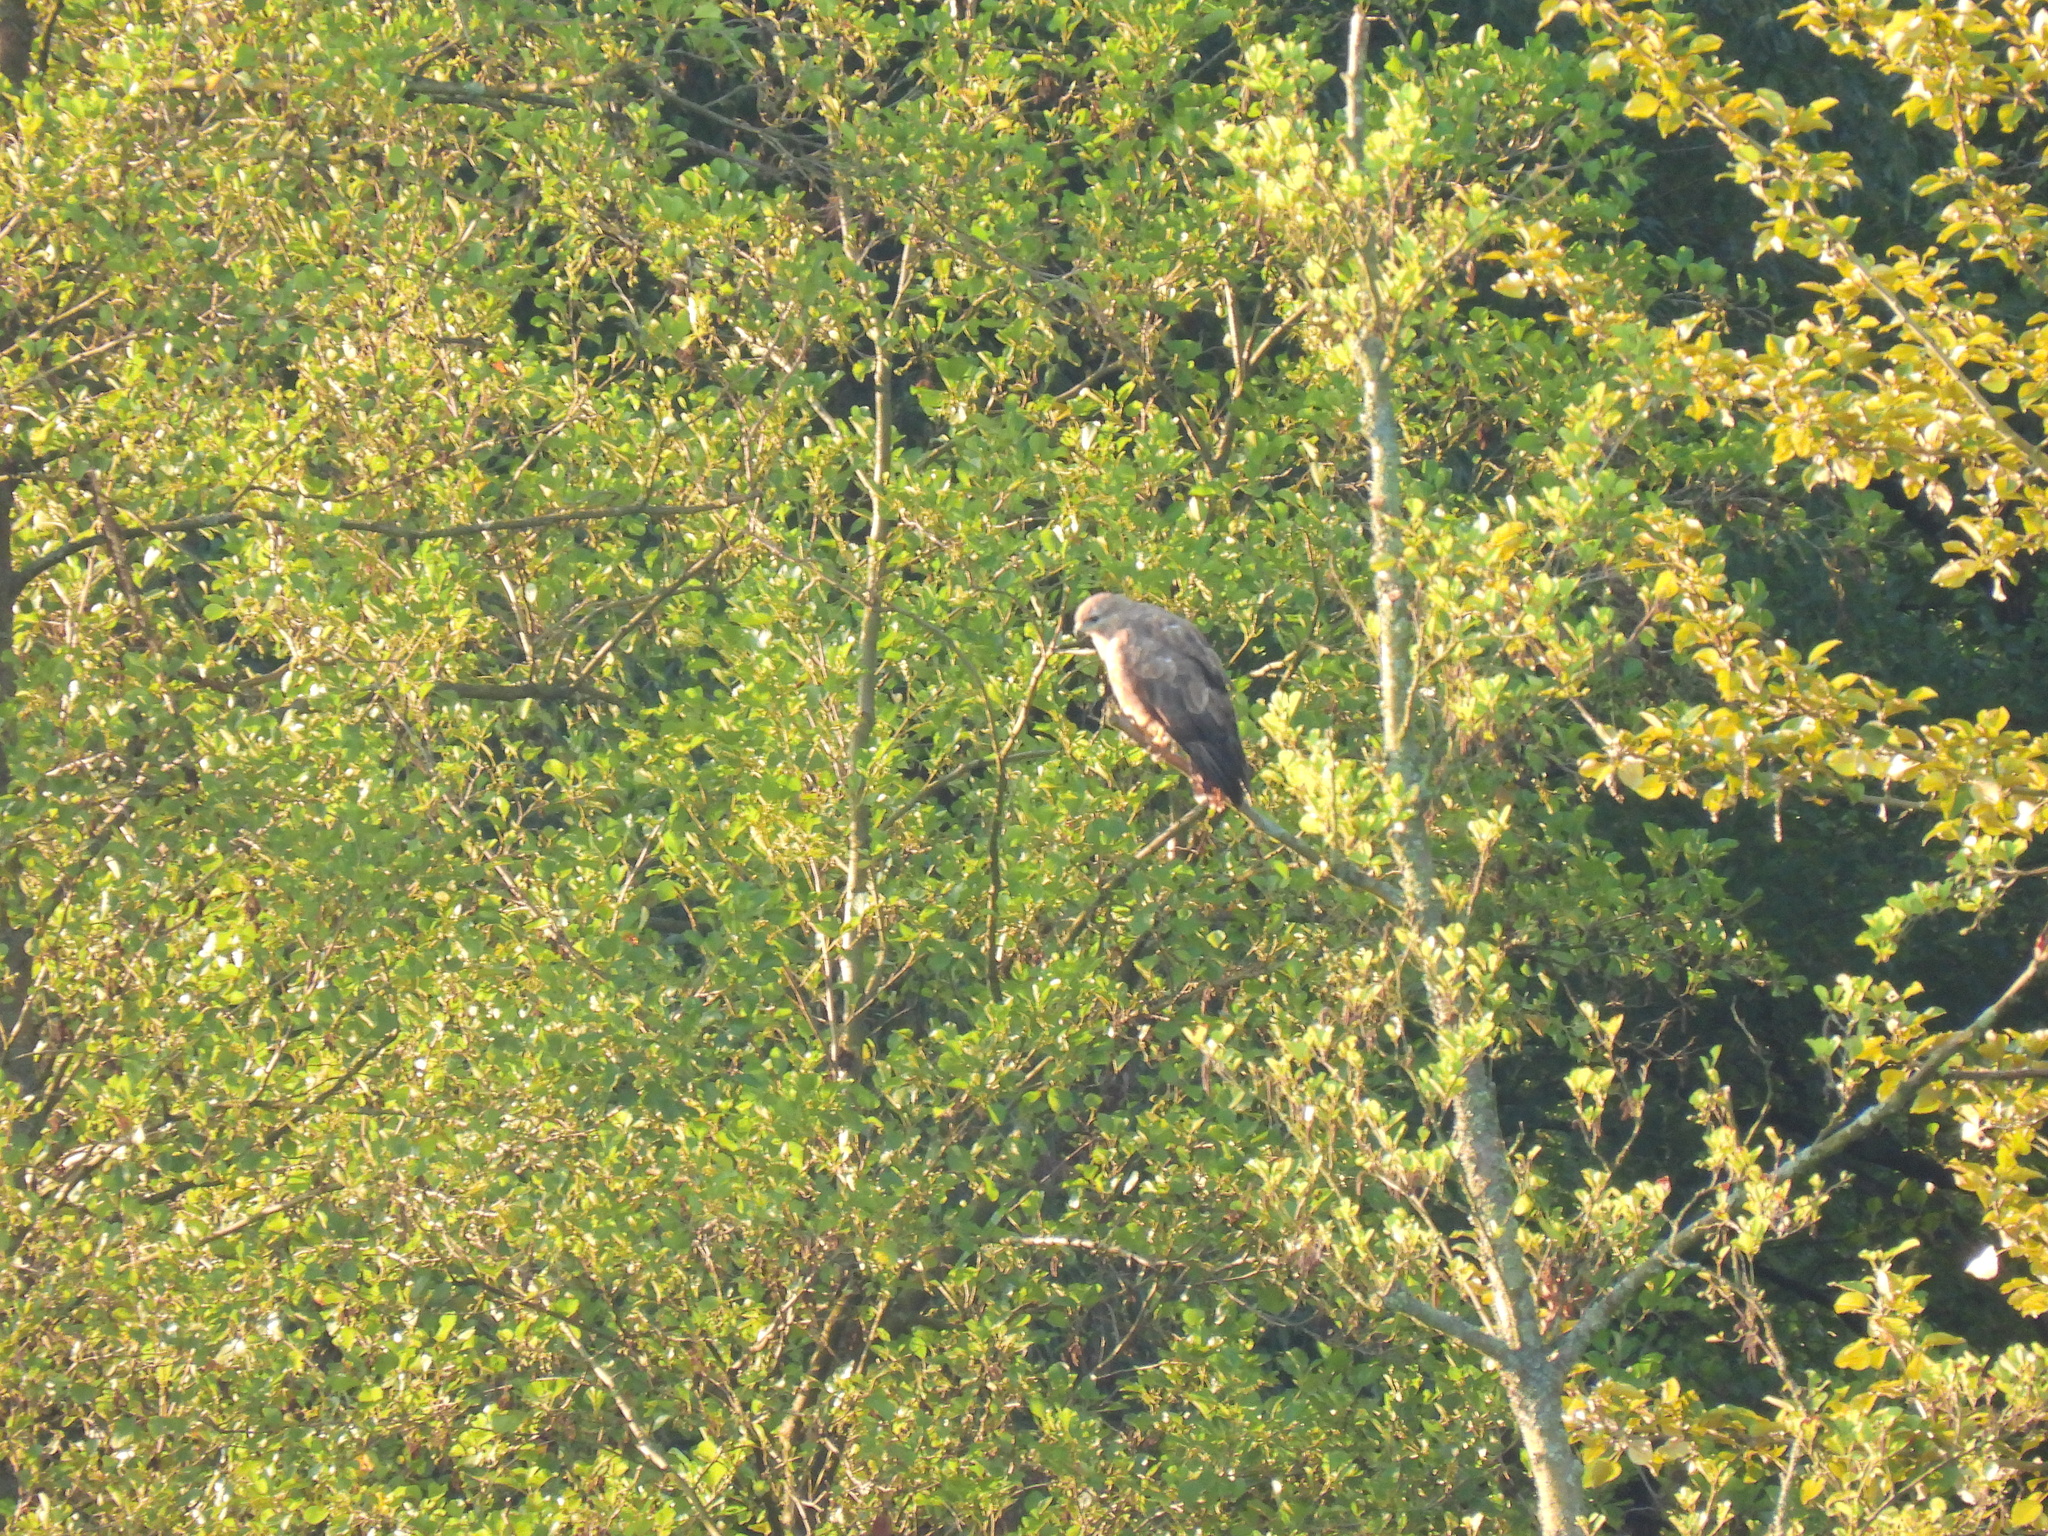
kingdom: Animalia
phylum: Chordata
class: Aves
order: Accipitriformes
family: Accipitridae
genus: Buteo
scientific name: Buteo buteo
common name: Common buzzard
